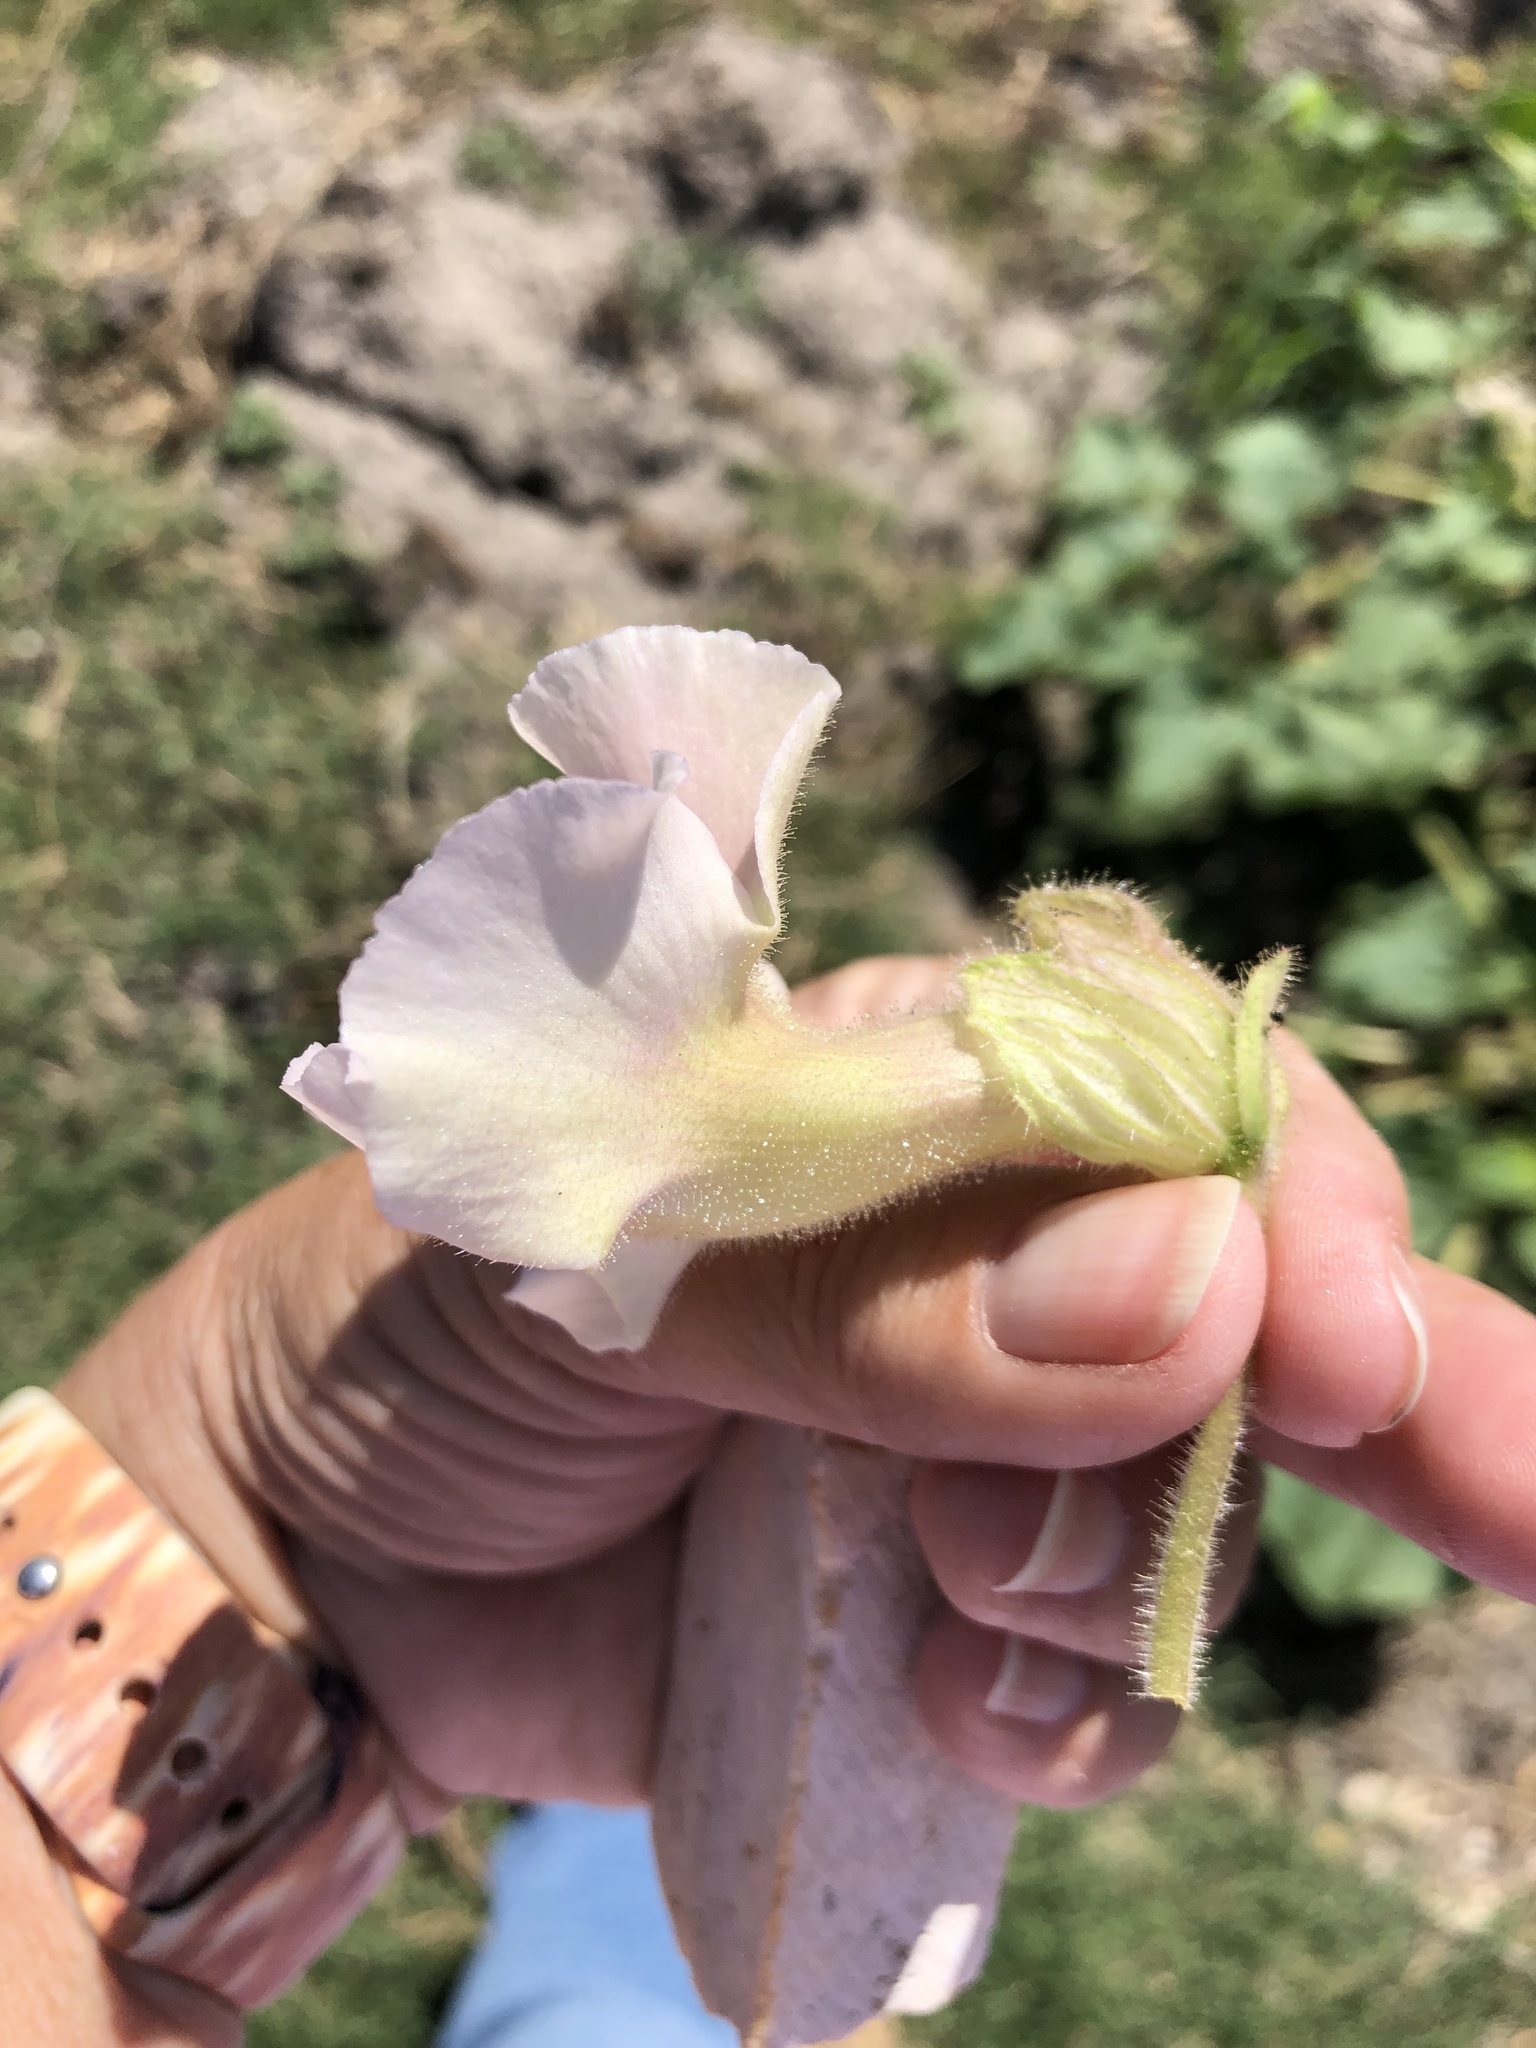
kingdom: Plantae
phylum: Tracheophyta
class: Magnoliopsida
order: Lamiales
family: Martyniaceae
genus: Proboscidea
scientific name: Proboscidea louisianica
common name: Elephant tusks
